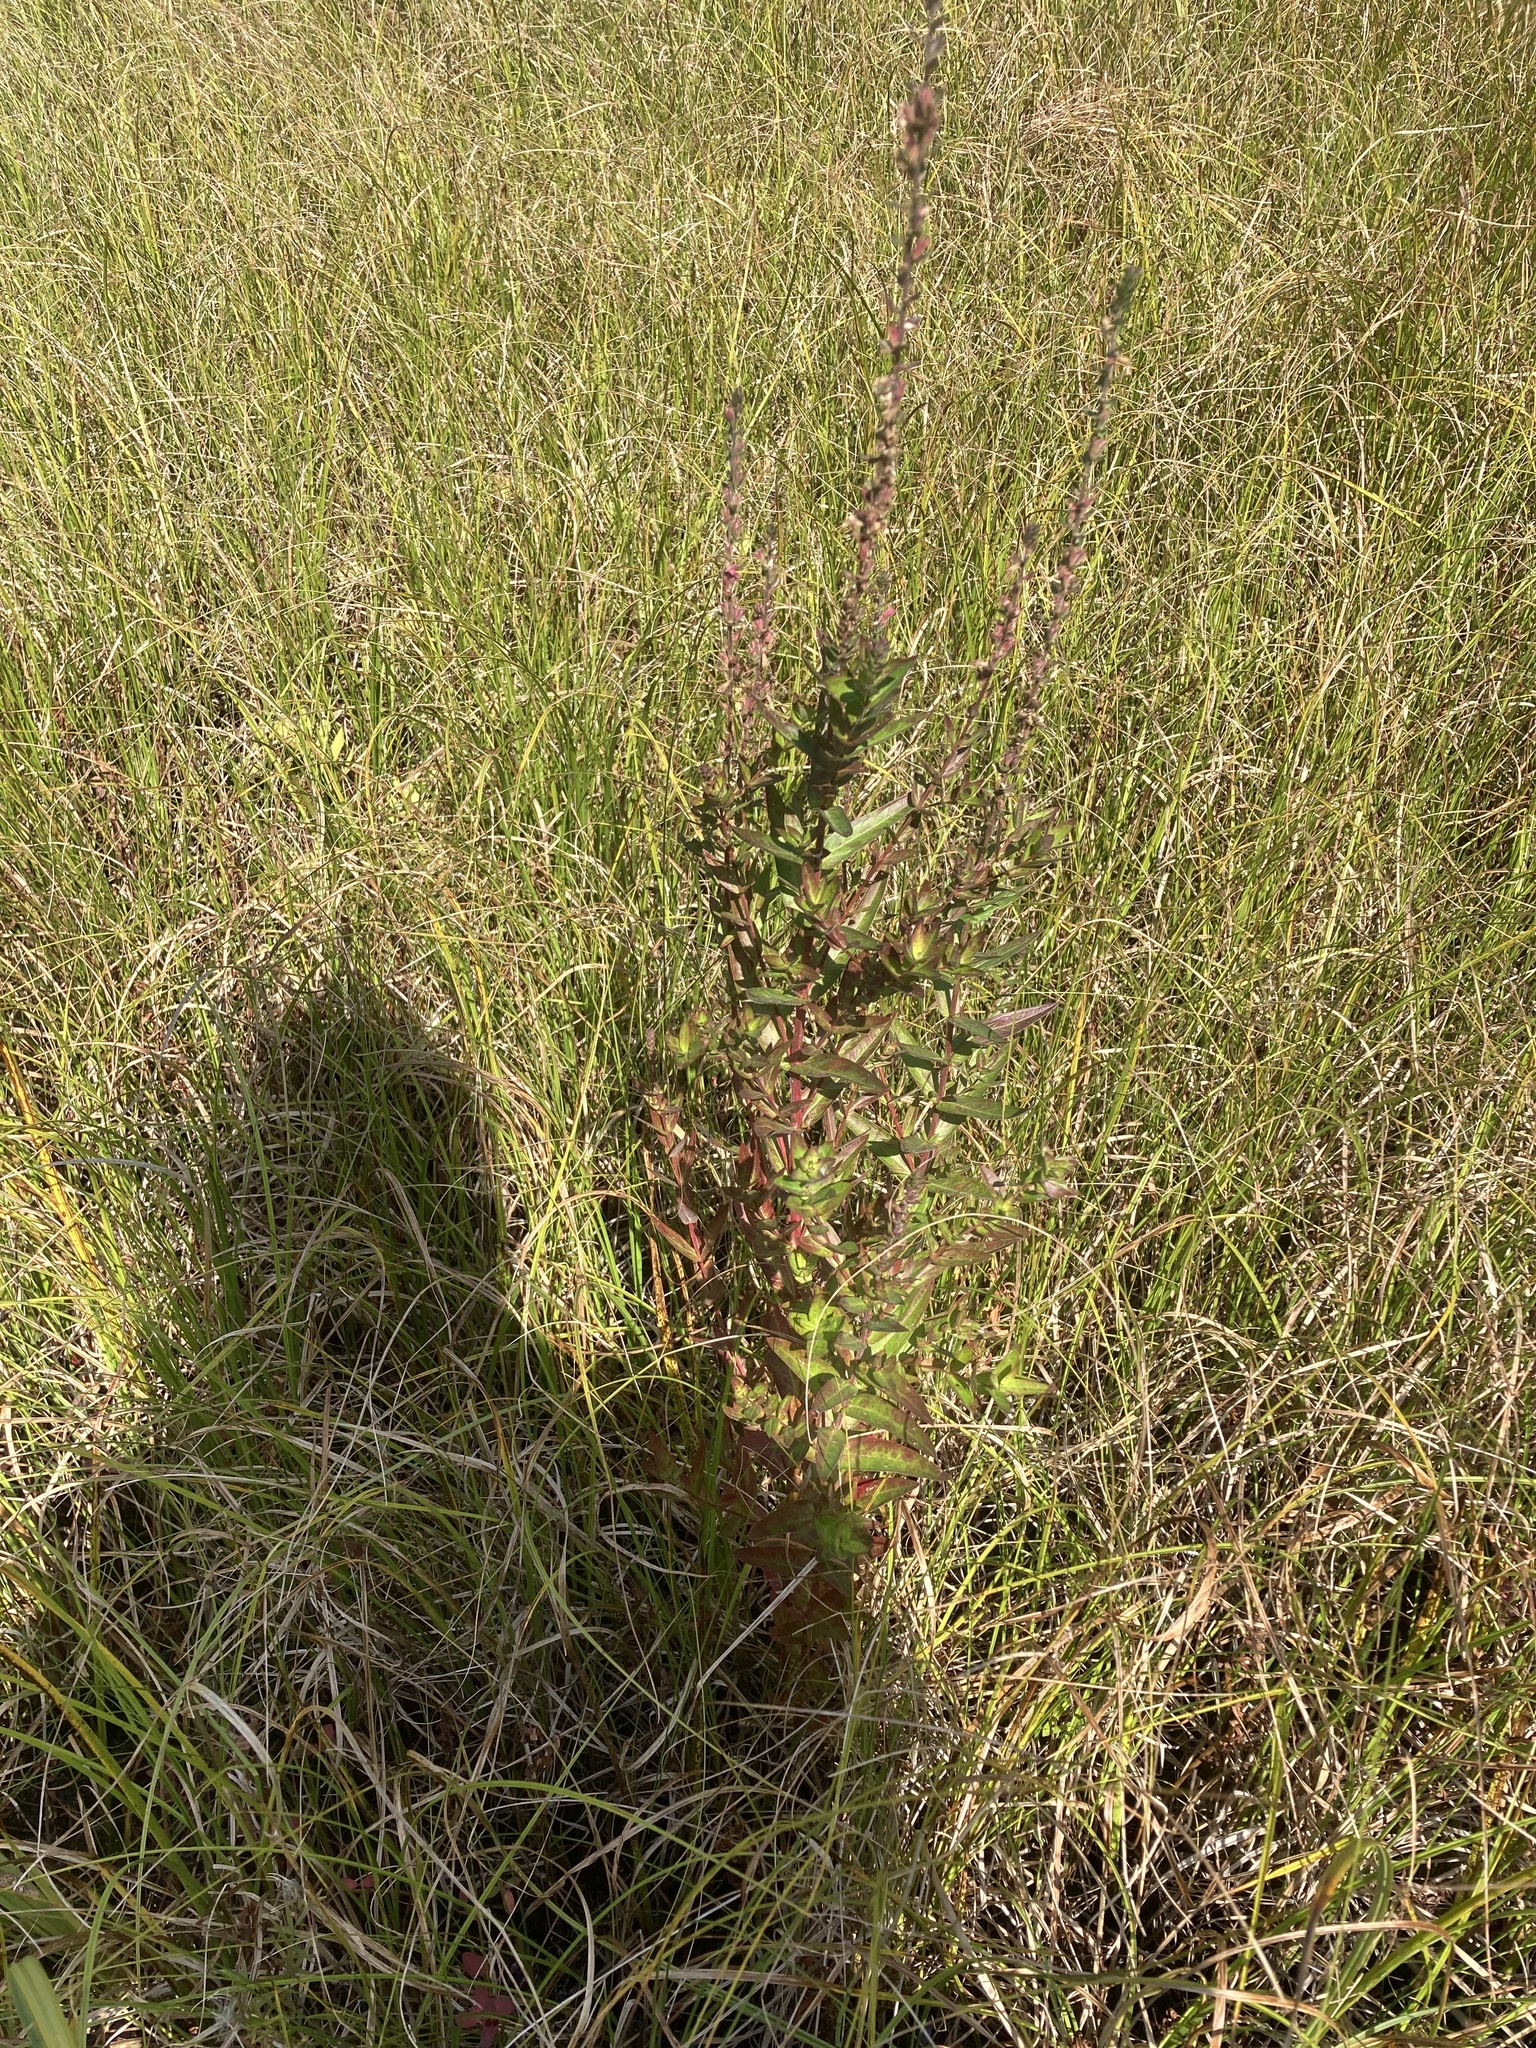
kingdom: Plantae
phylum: Tracheophyta
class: Magnoliopsida
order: Myrtales
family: Lythraceae
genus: Lythrum
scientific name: Lythrum salicaria
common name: Purple loosestrife
